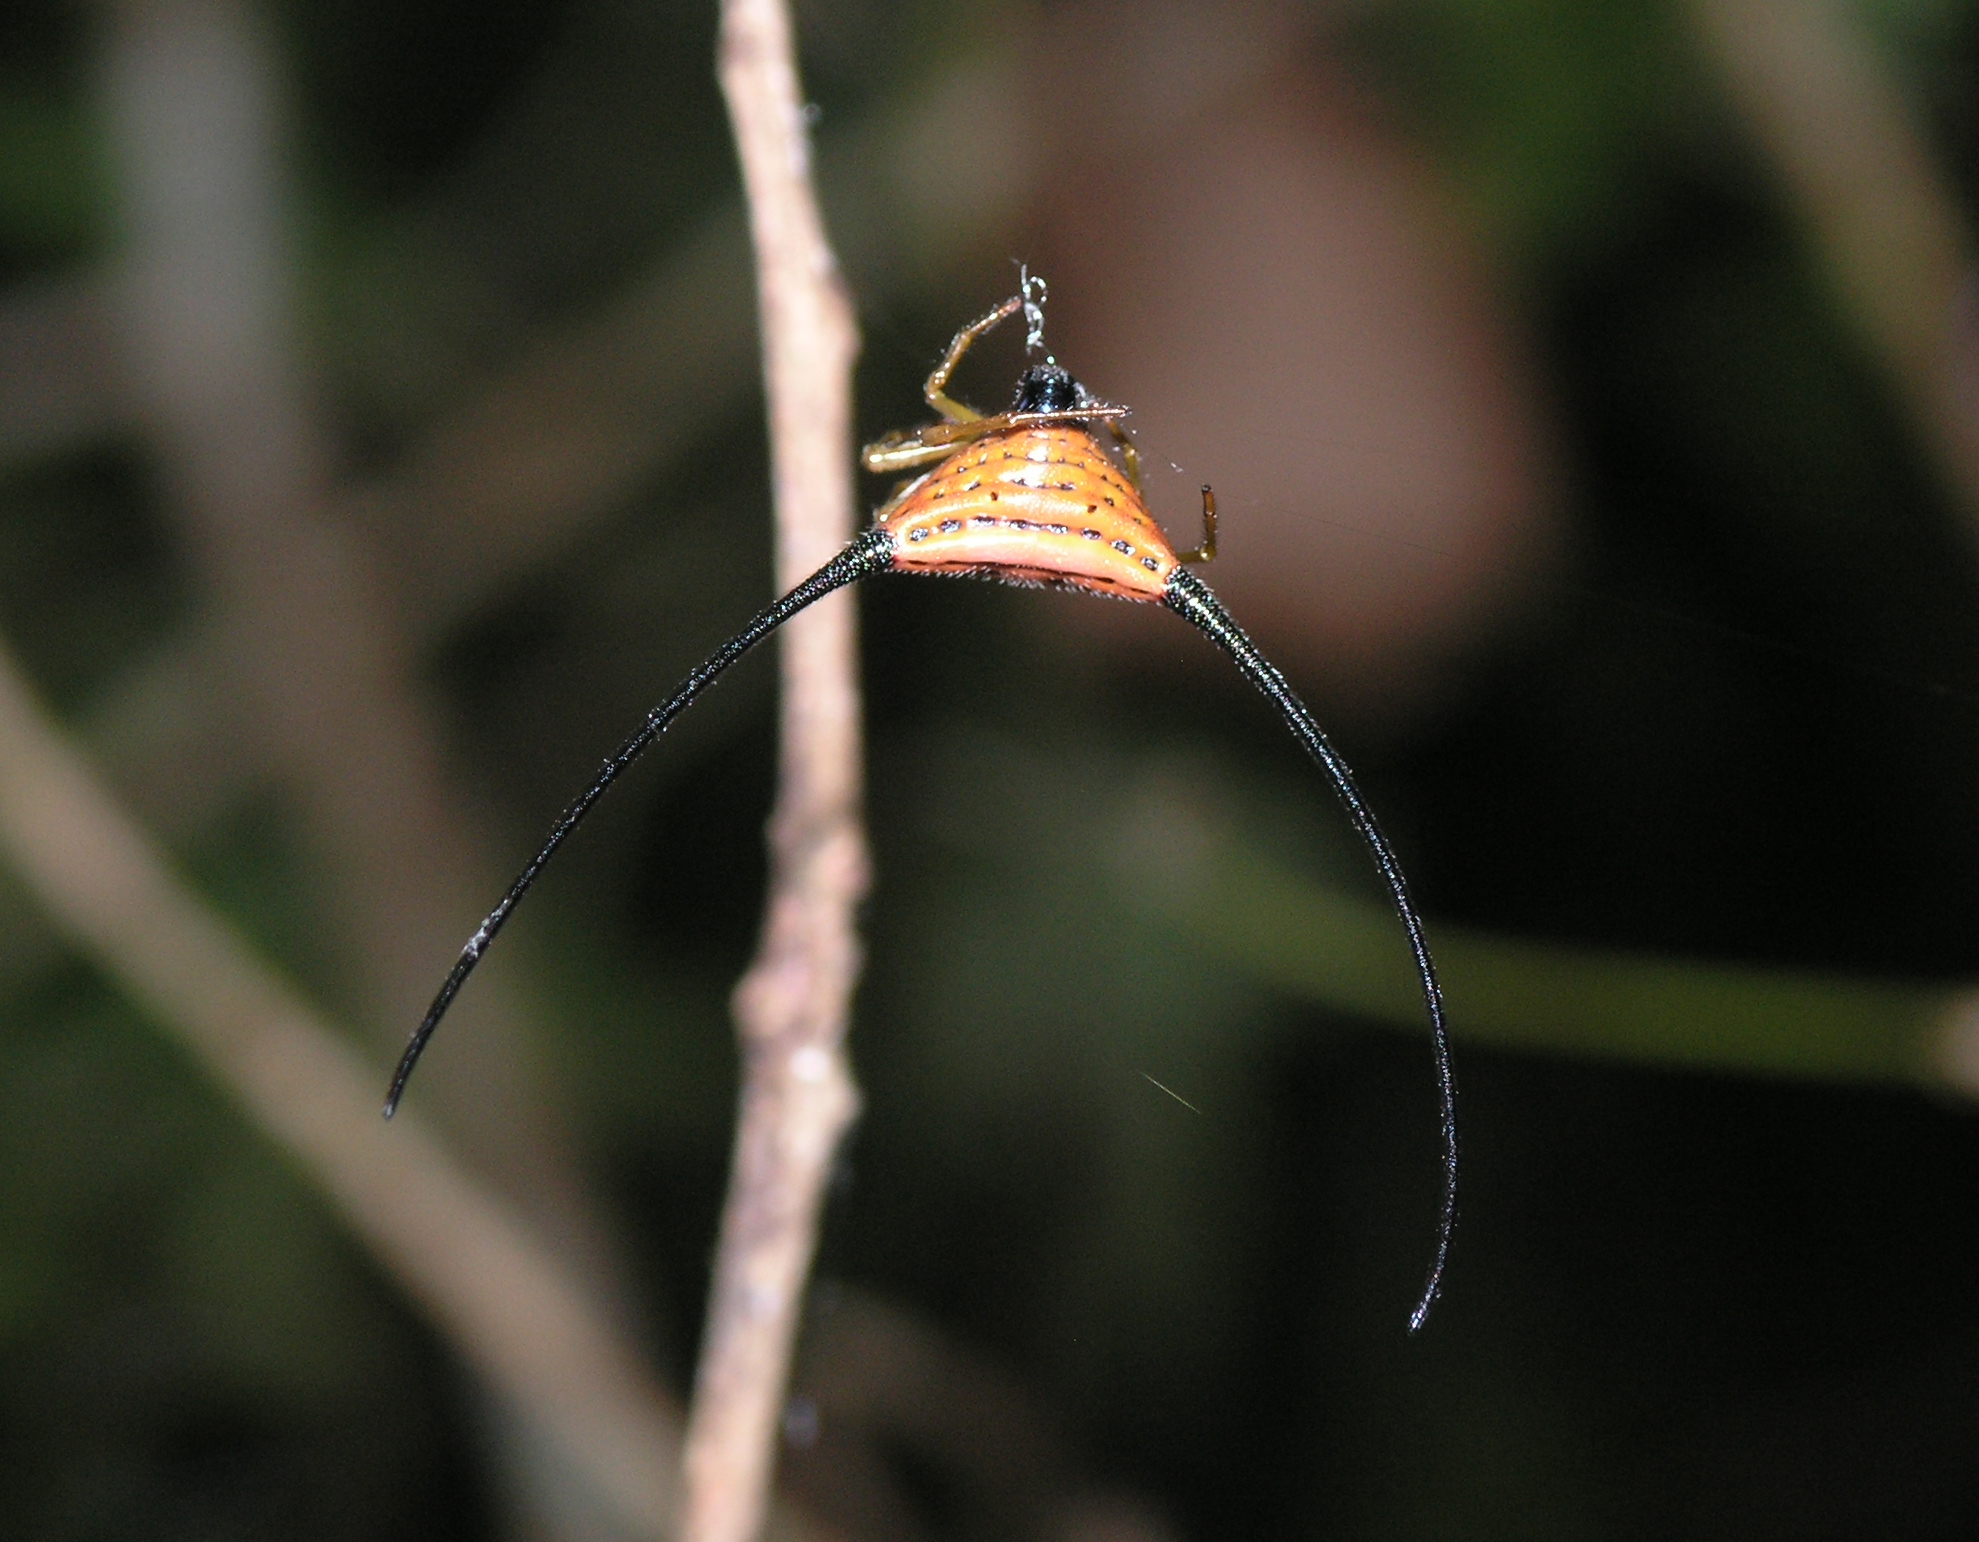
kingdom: Animalia
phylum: Arthropoda
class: Arachnida
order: Araneae
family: Araneidae
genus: Macracantha
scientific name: Macracantha arcuata
